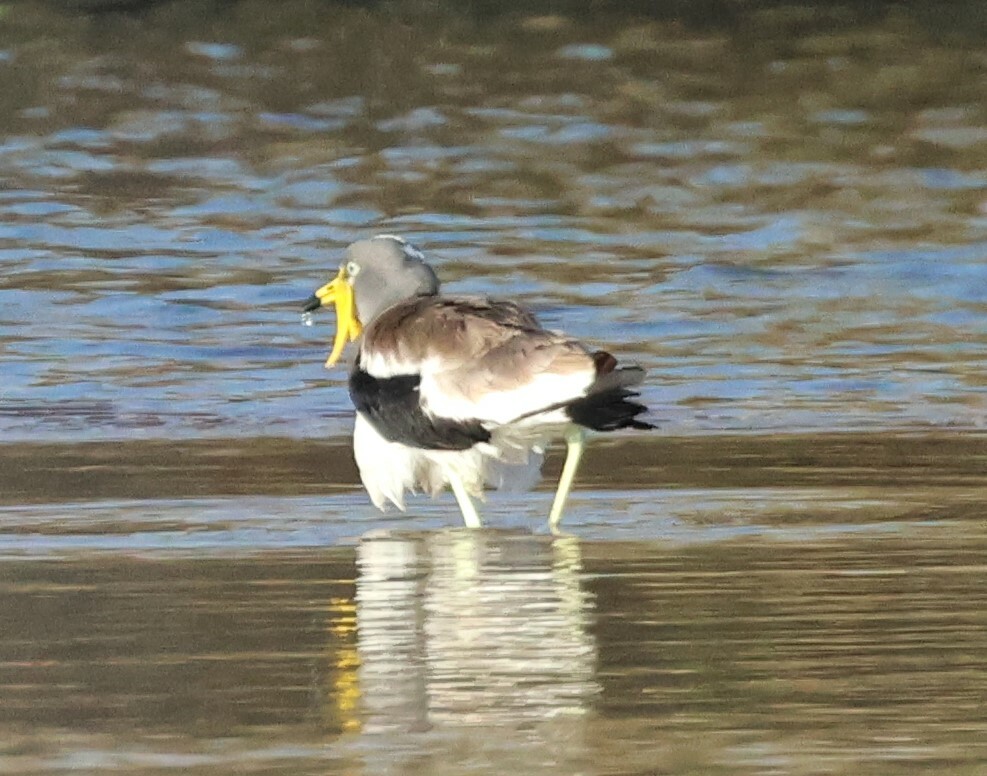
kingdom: Animalia
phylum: Chordata
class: Aves
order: Charadriiformes
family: Charadriidae
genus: Vanellus
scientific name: Vanellus albiceps
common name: White-crowned lapwing
